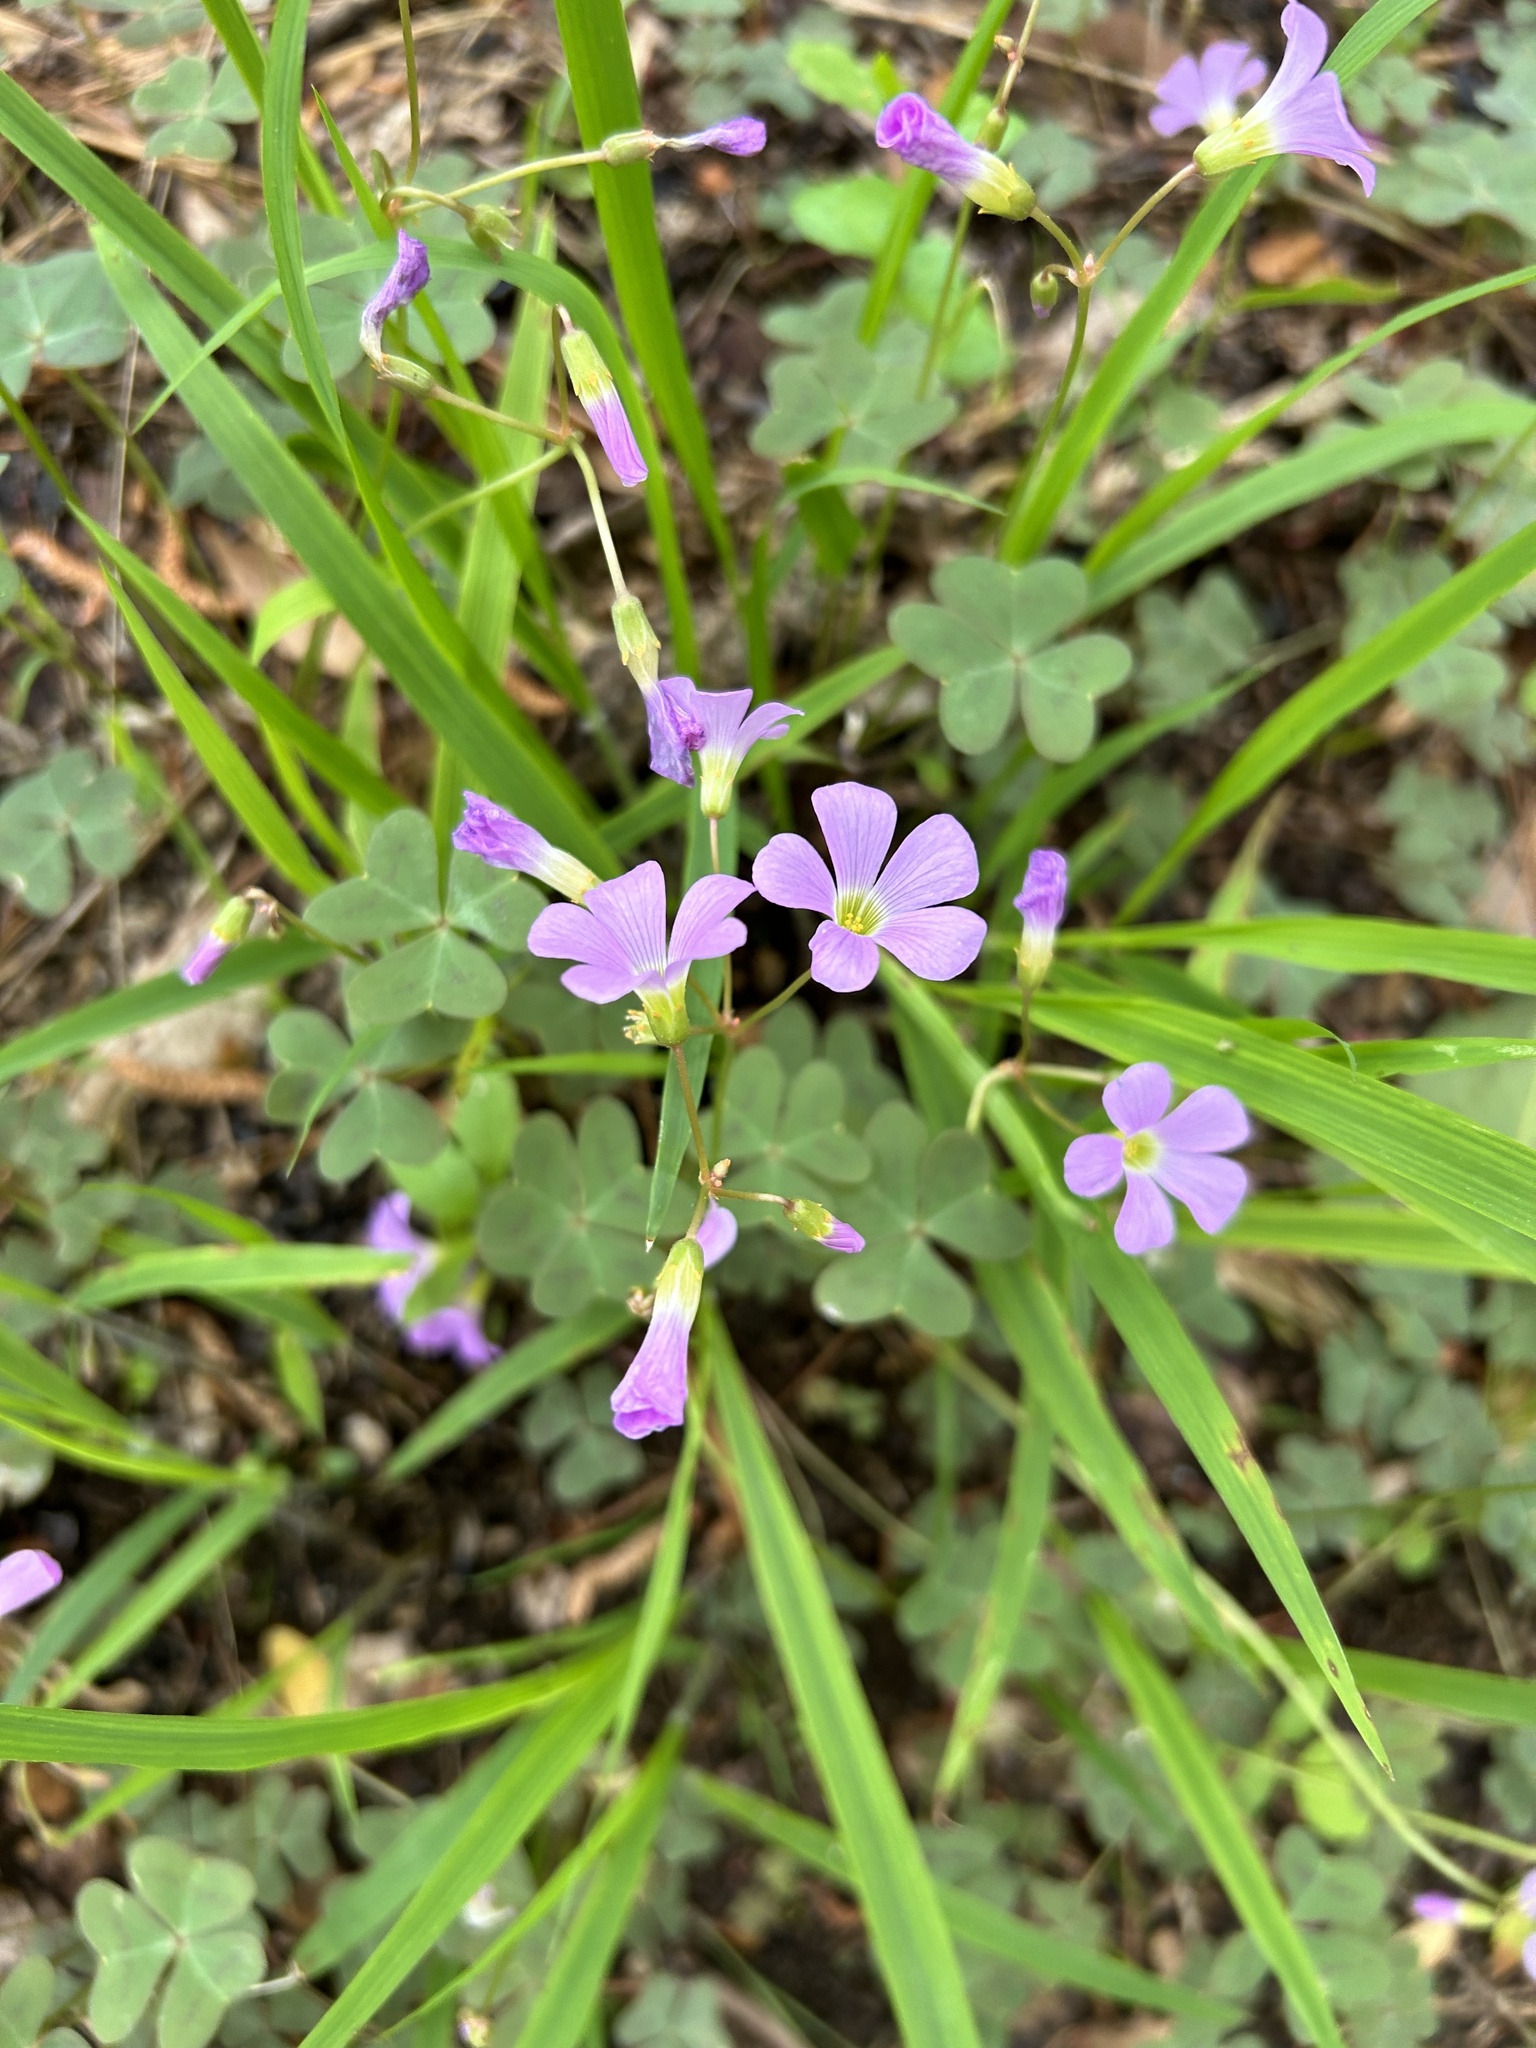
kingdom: Plantae
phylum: Tracheophyta
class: Magnoliopsida
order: Oxalidales
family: Oxalidaceae
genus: Oxalis
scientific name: Oxalis violacea
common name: Violet wood-sorrel
